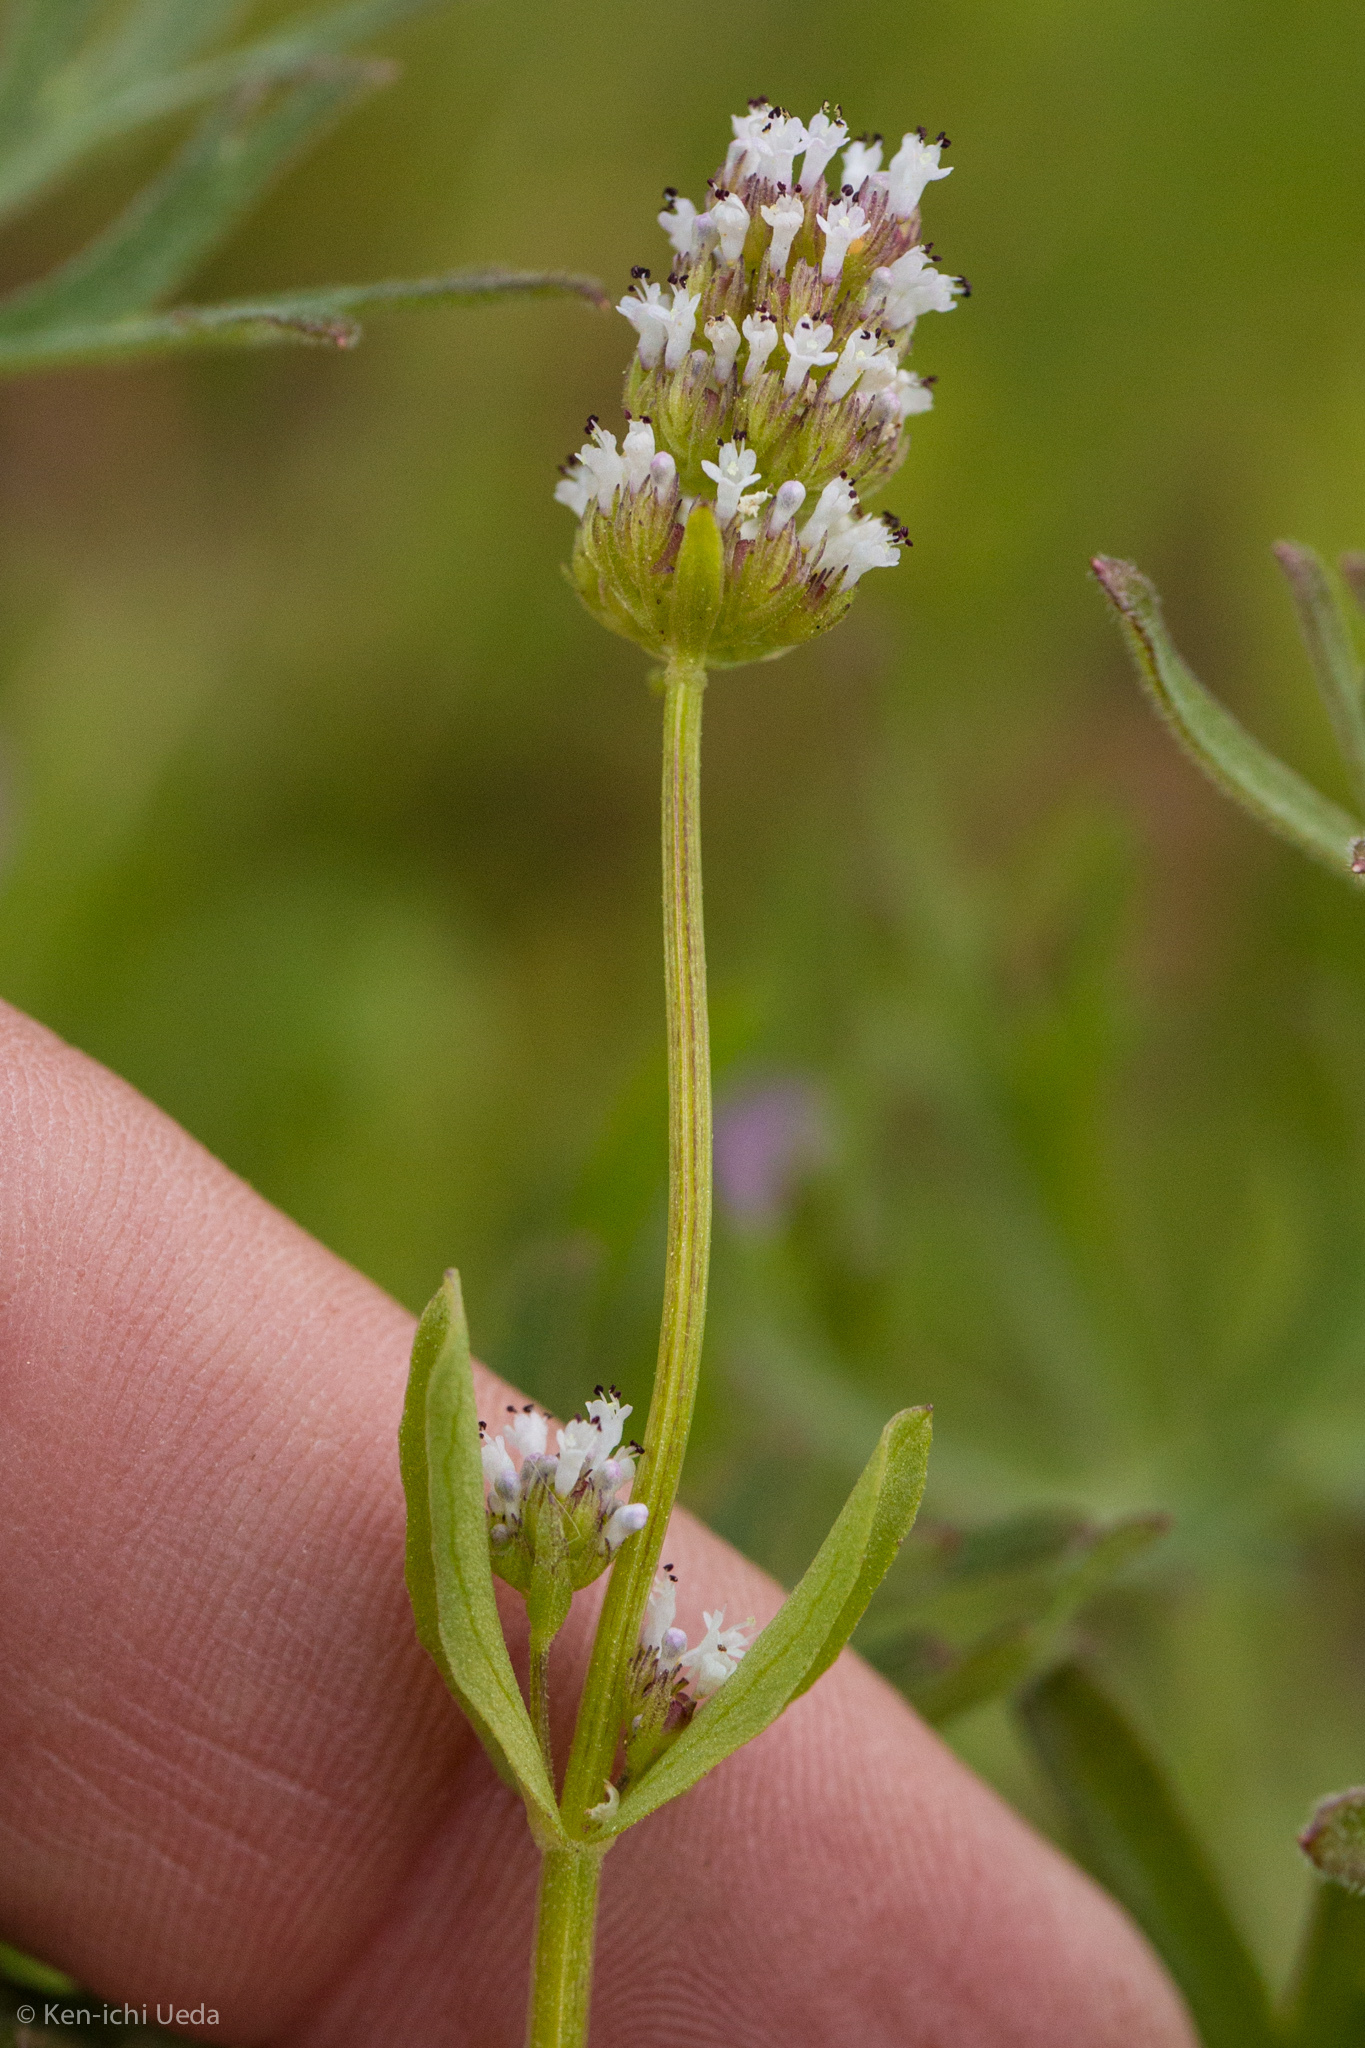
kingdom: Plantae
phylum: Tracheophyta
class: Magnoliopsida
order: Dipsacales
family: Caprifoliaceae
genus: Plectritis
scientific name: Plectritis macroptera
